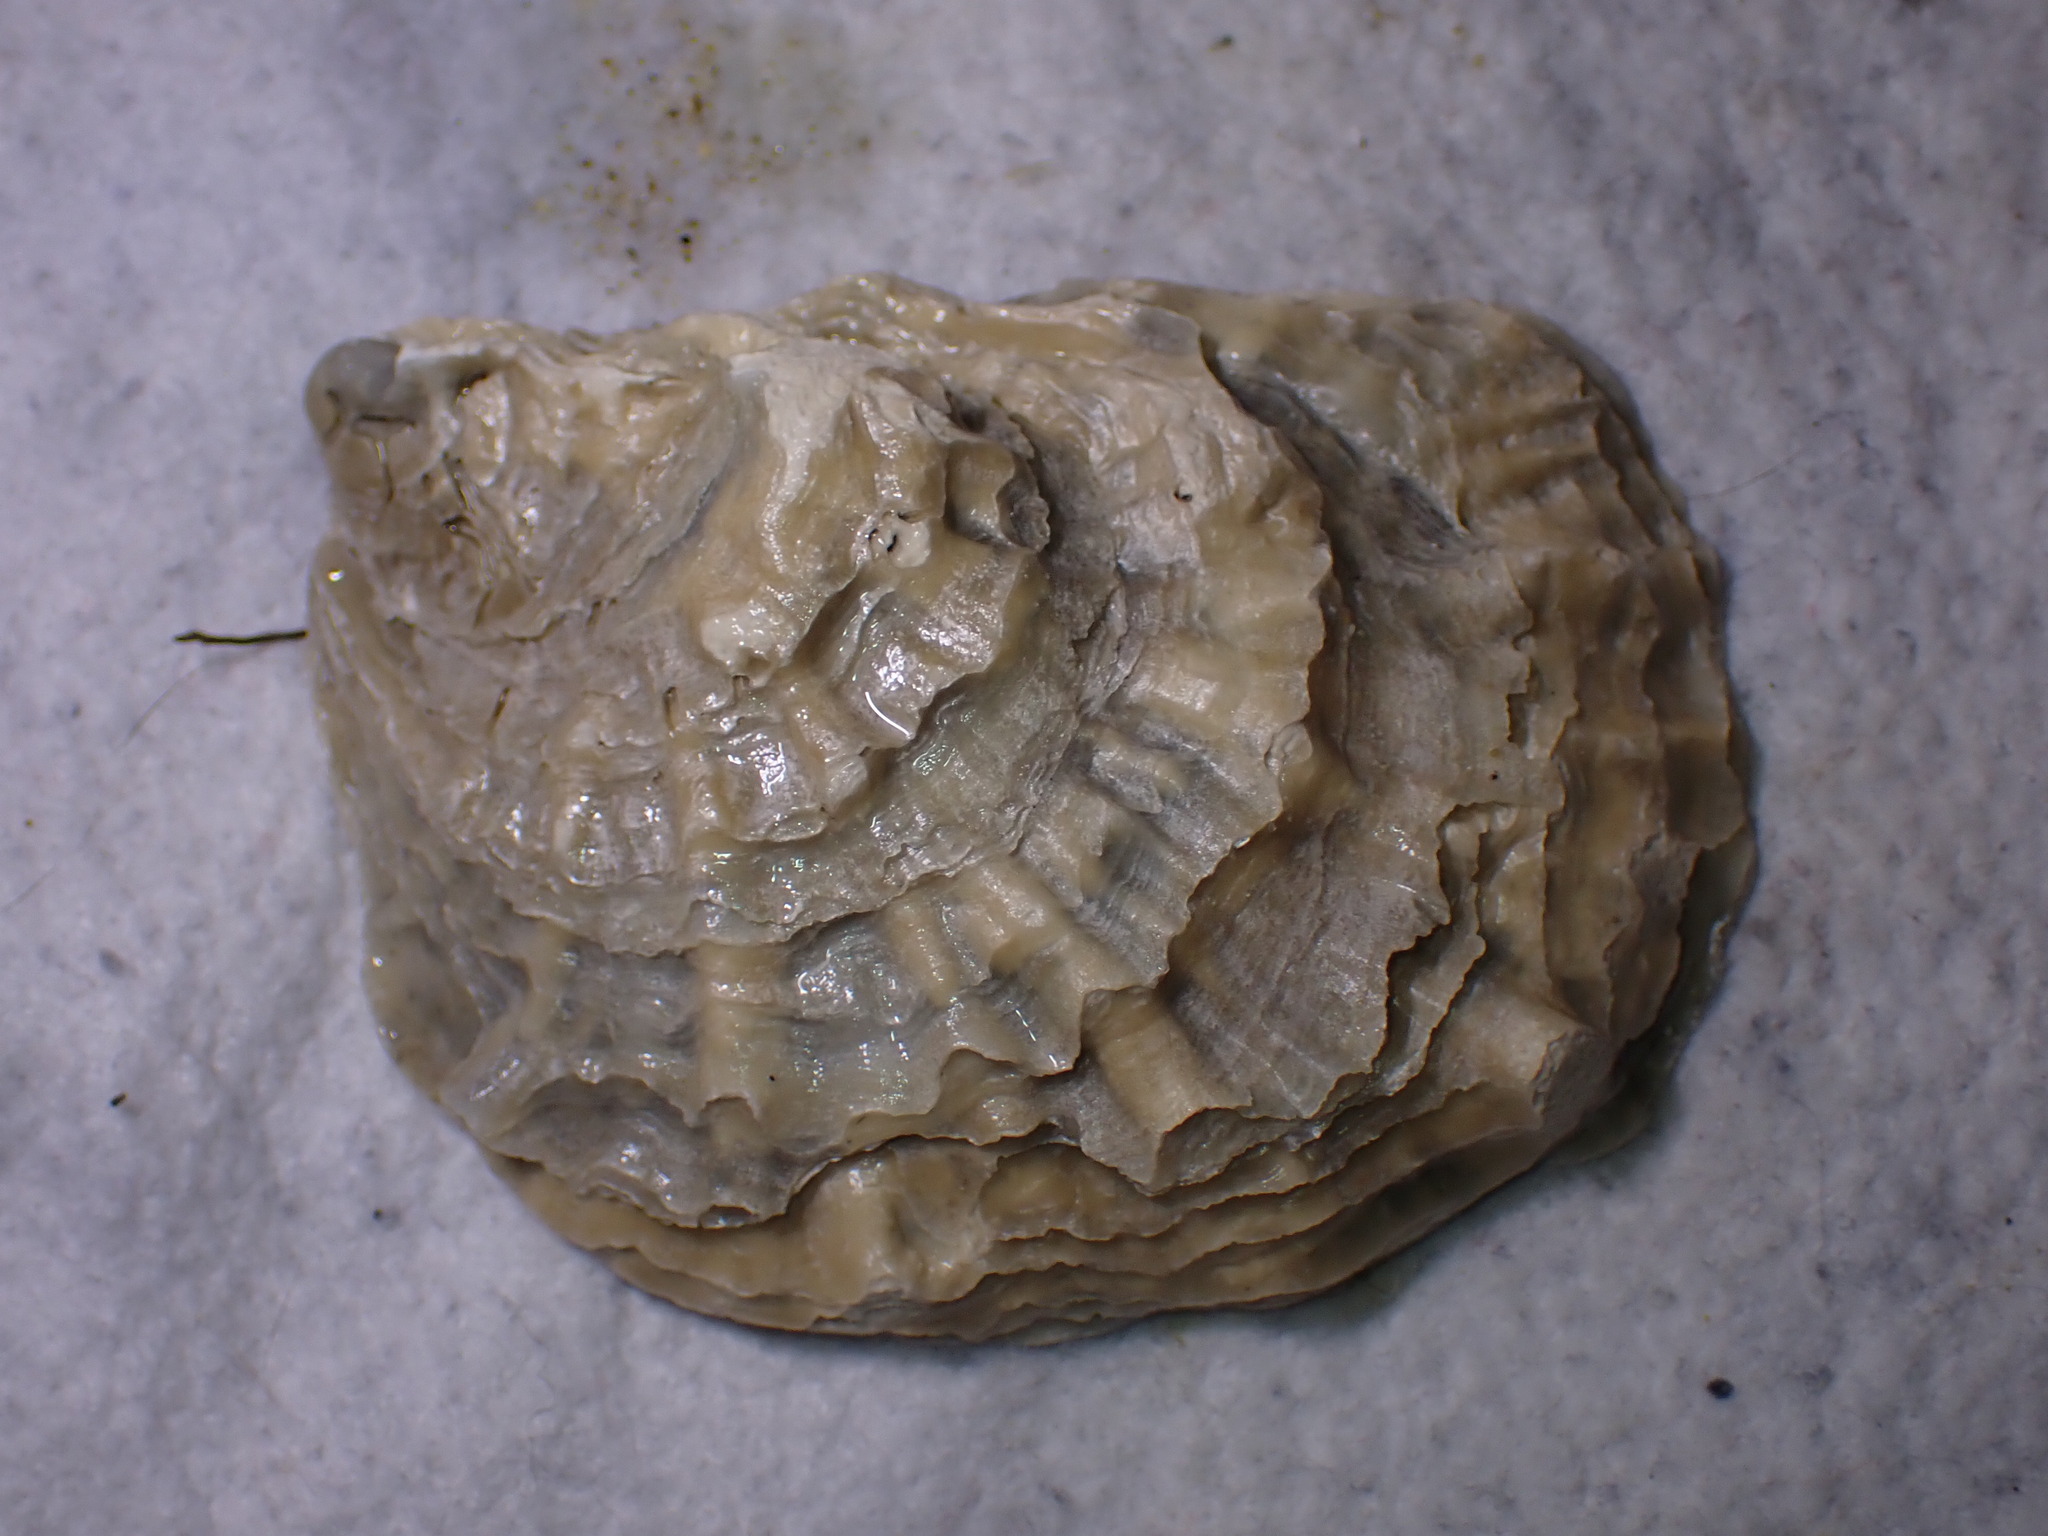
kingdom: Animalia
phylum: Mollusca
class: Bivalvia
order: Ostreida
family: Ostreidae
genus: Ostrea
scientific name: Ostrea edulis
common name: Flat oyster
